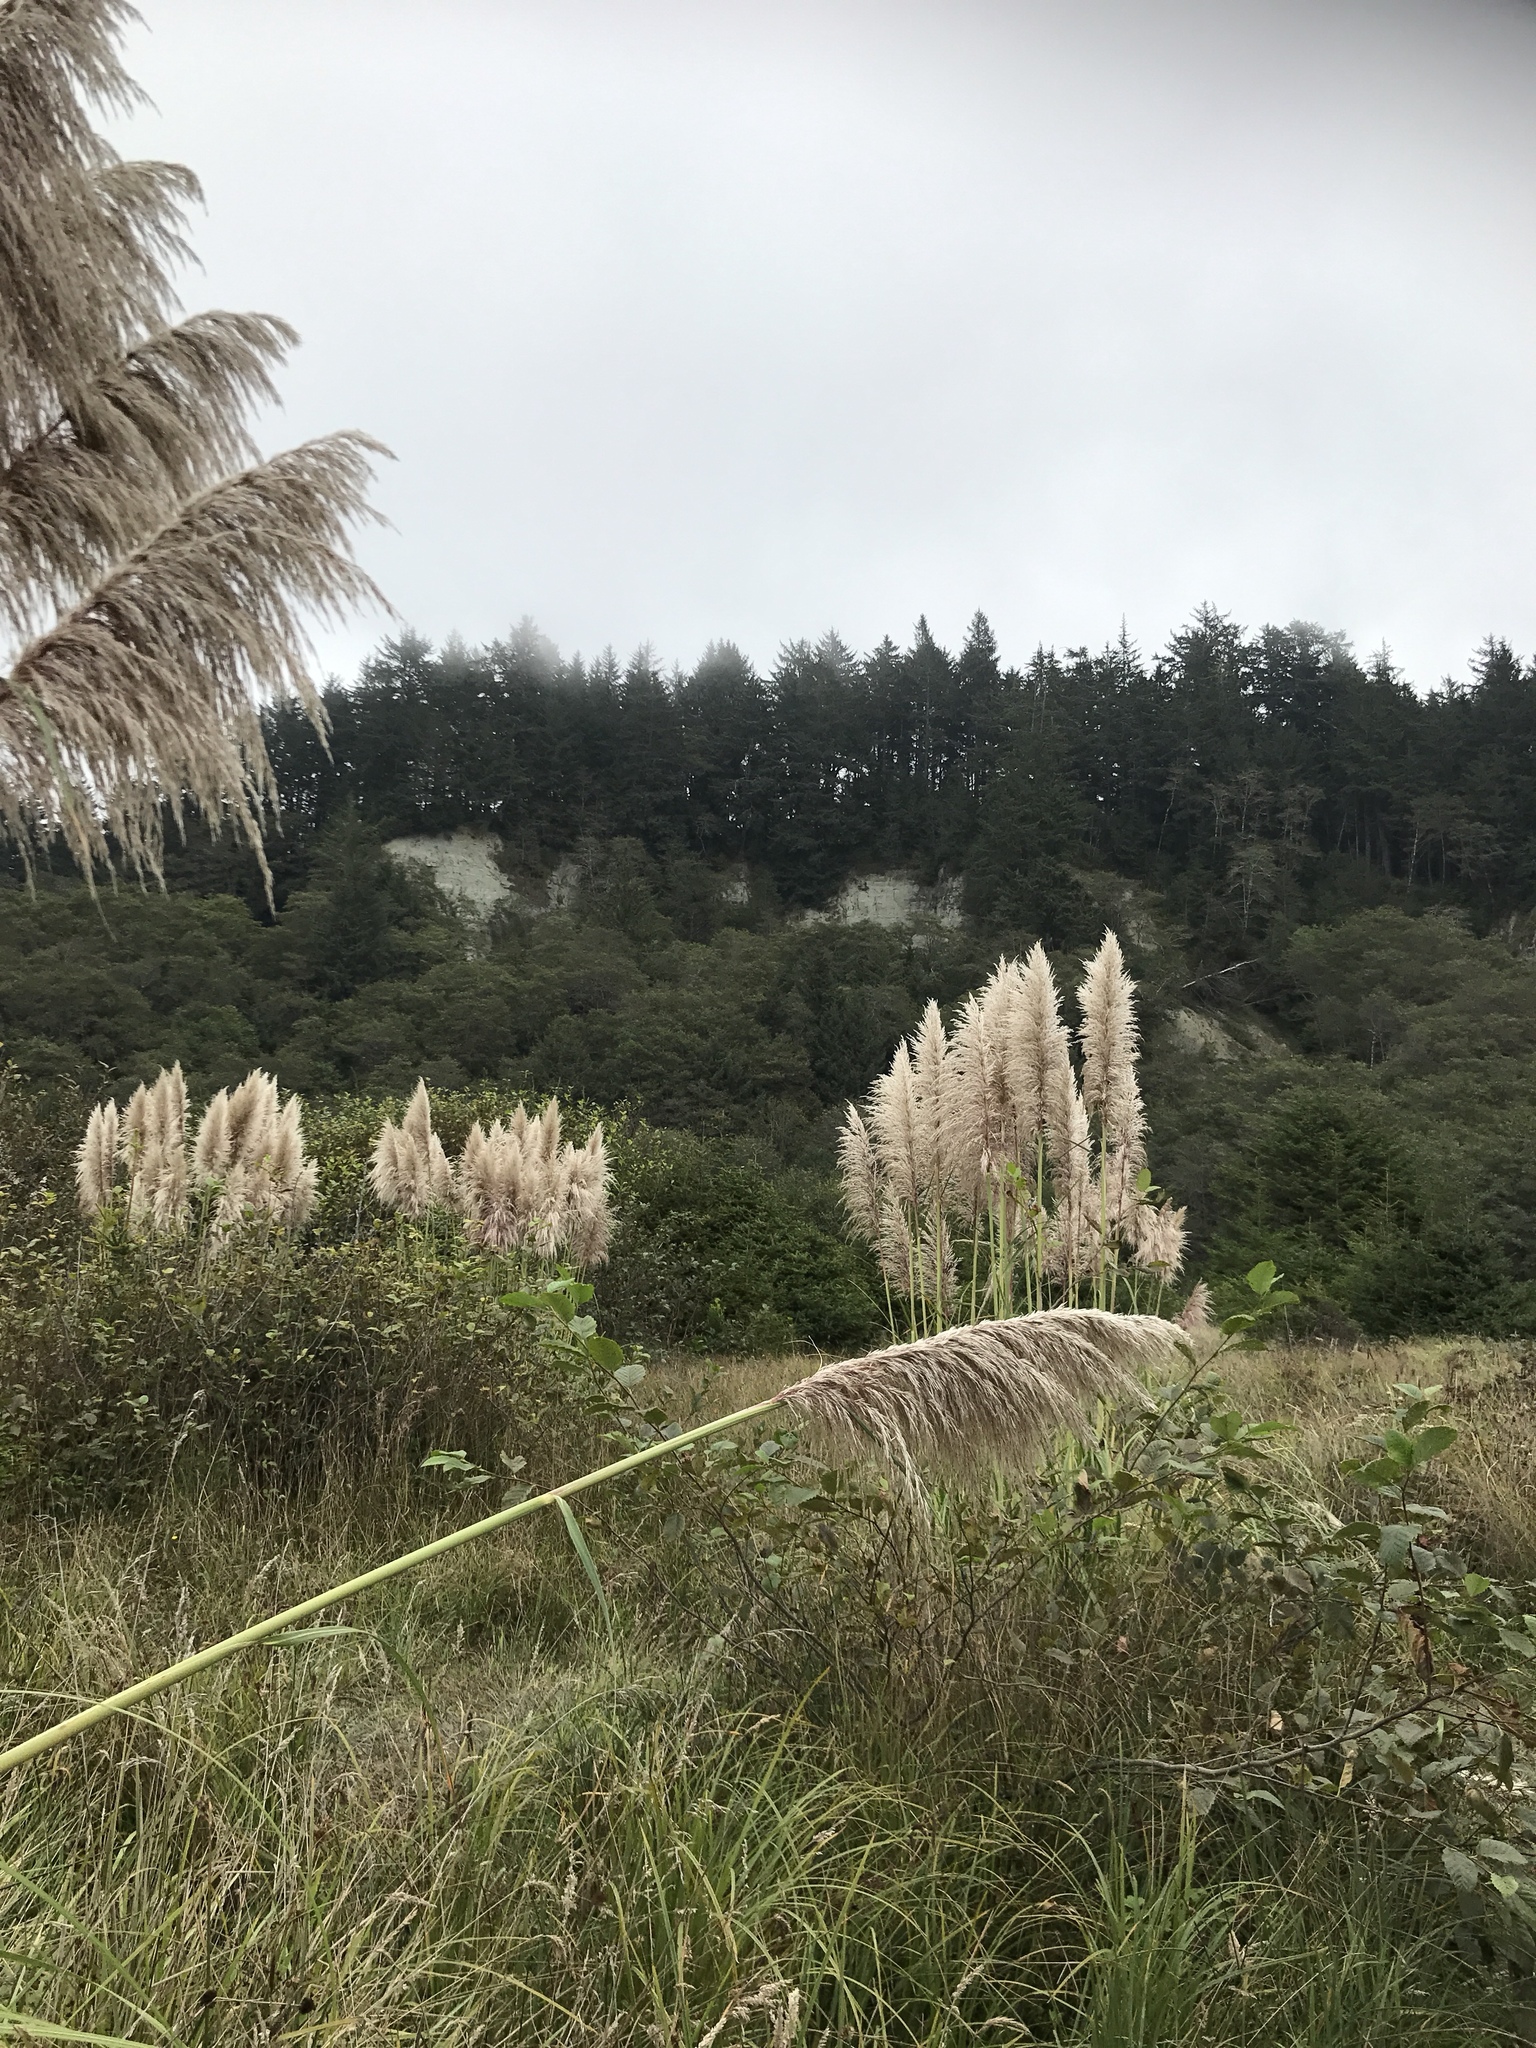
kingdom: Plantae
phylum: Tracheophyta
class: Liliopsida
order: Poales
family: Poaceae
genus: Cortaderia
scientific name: Cortaderia selloana
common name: Uruguayan pampas grass
